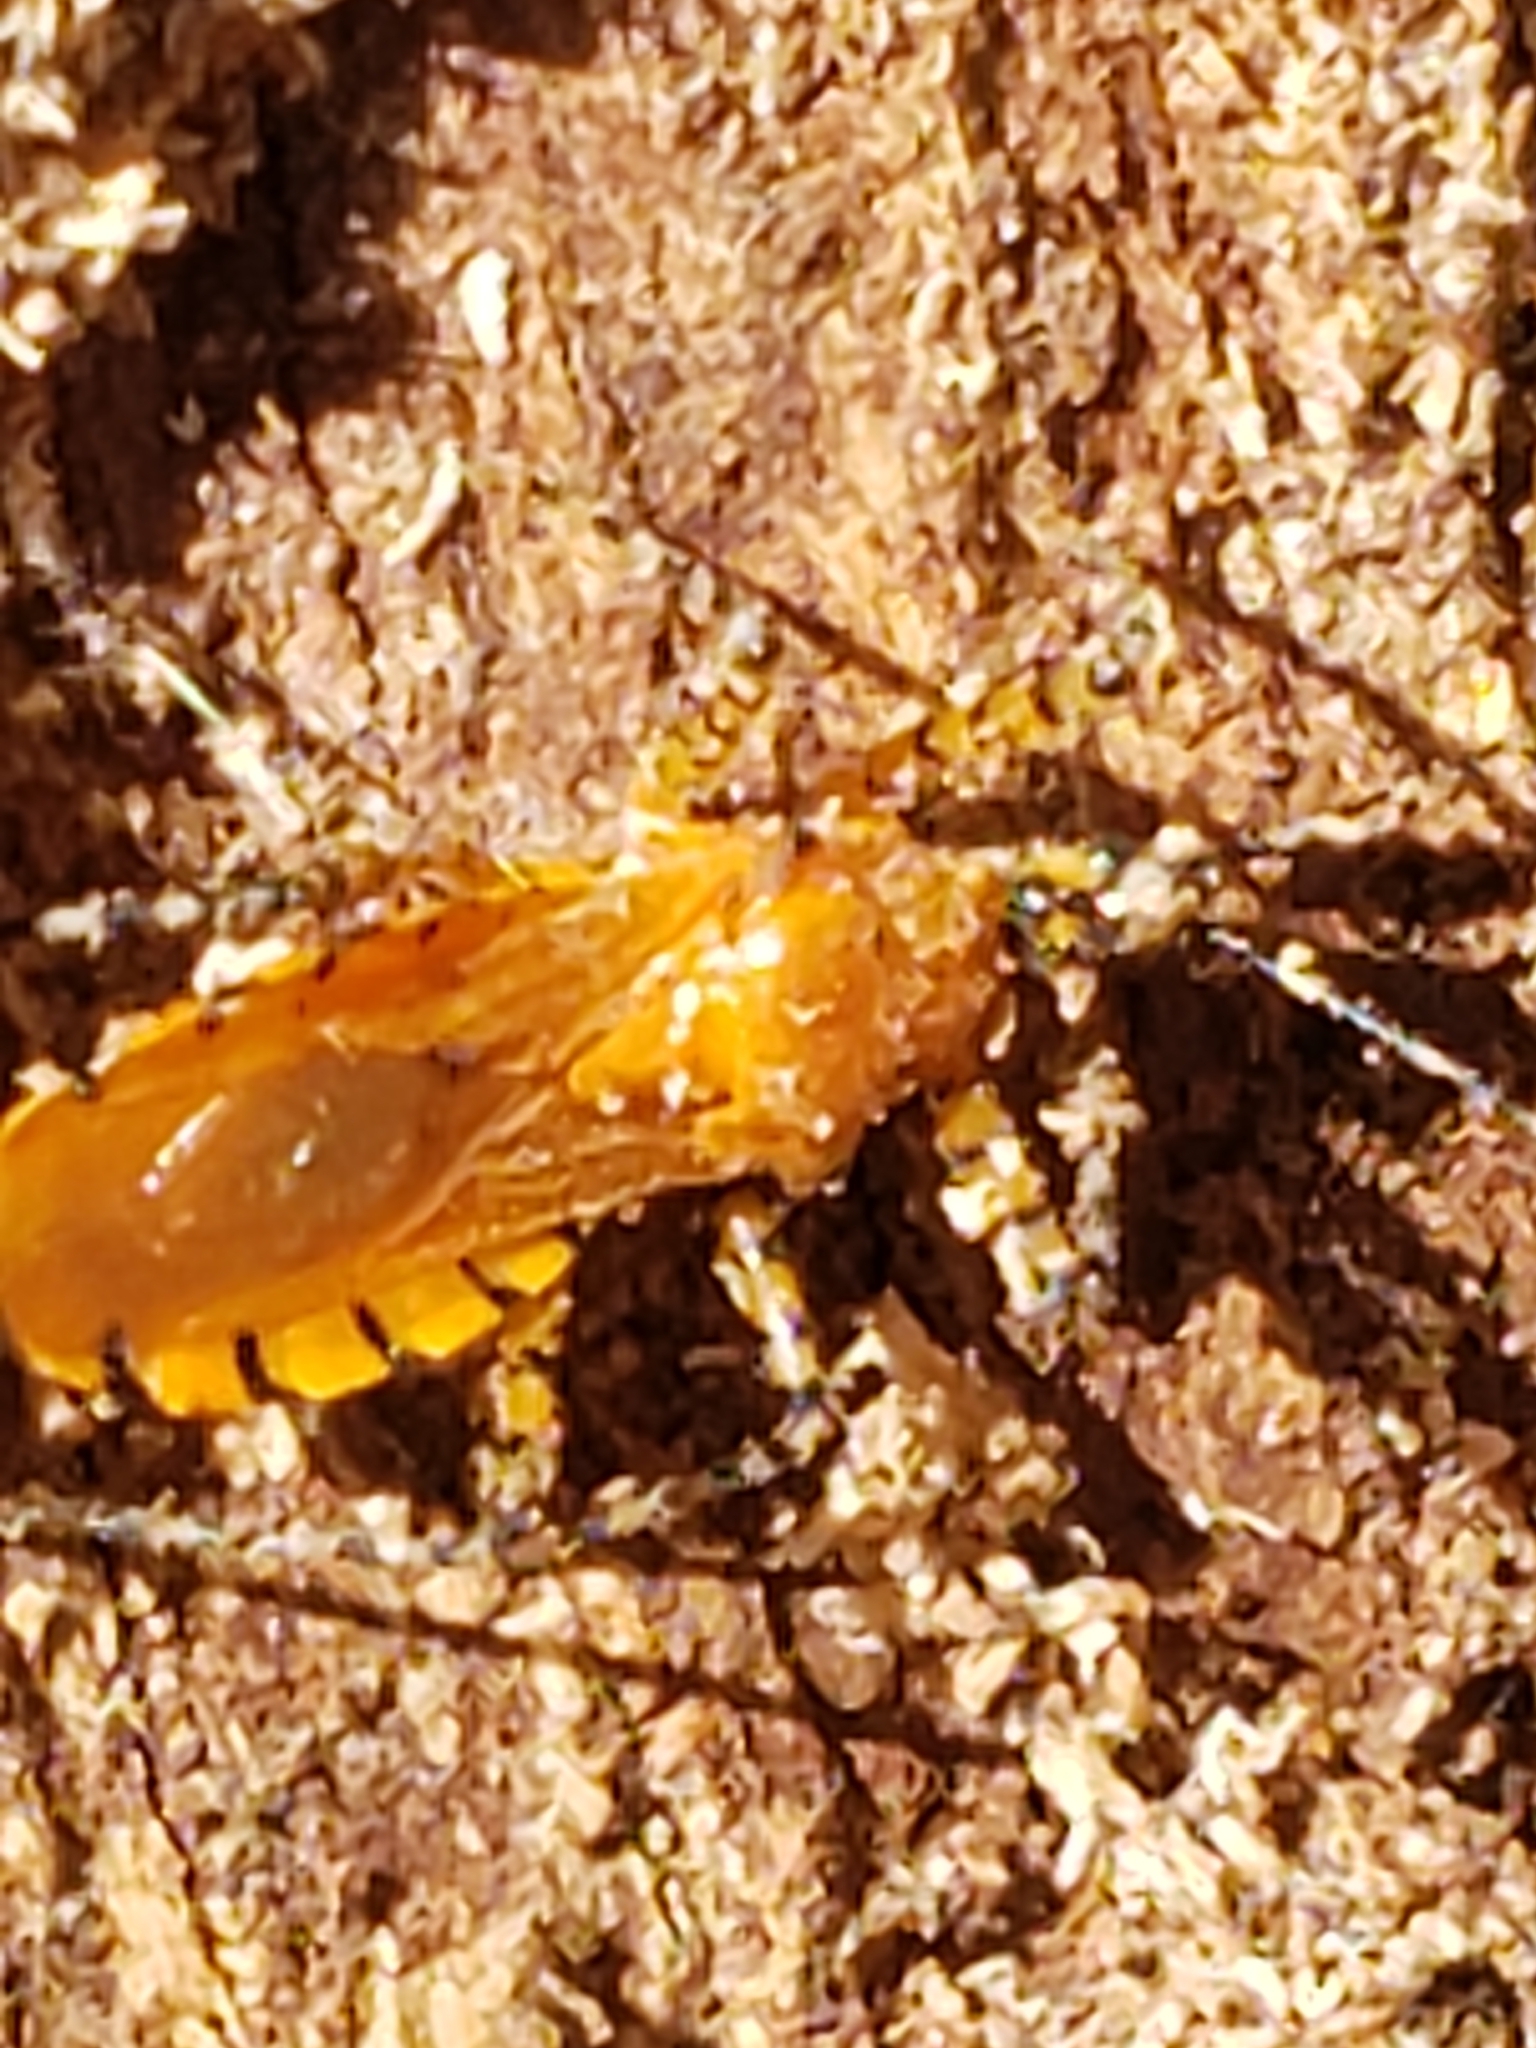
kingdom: Animalia
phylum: Arthropoda
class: Insecta
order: Hemiptera
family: Reduviidae
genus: Pselliopus
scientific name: Pselliopus barberi
